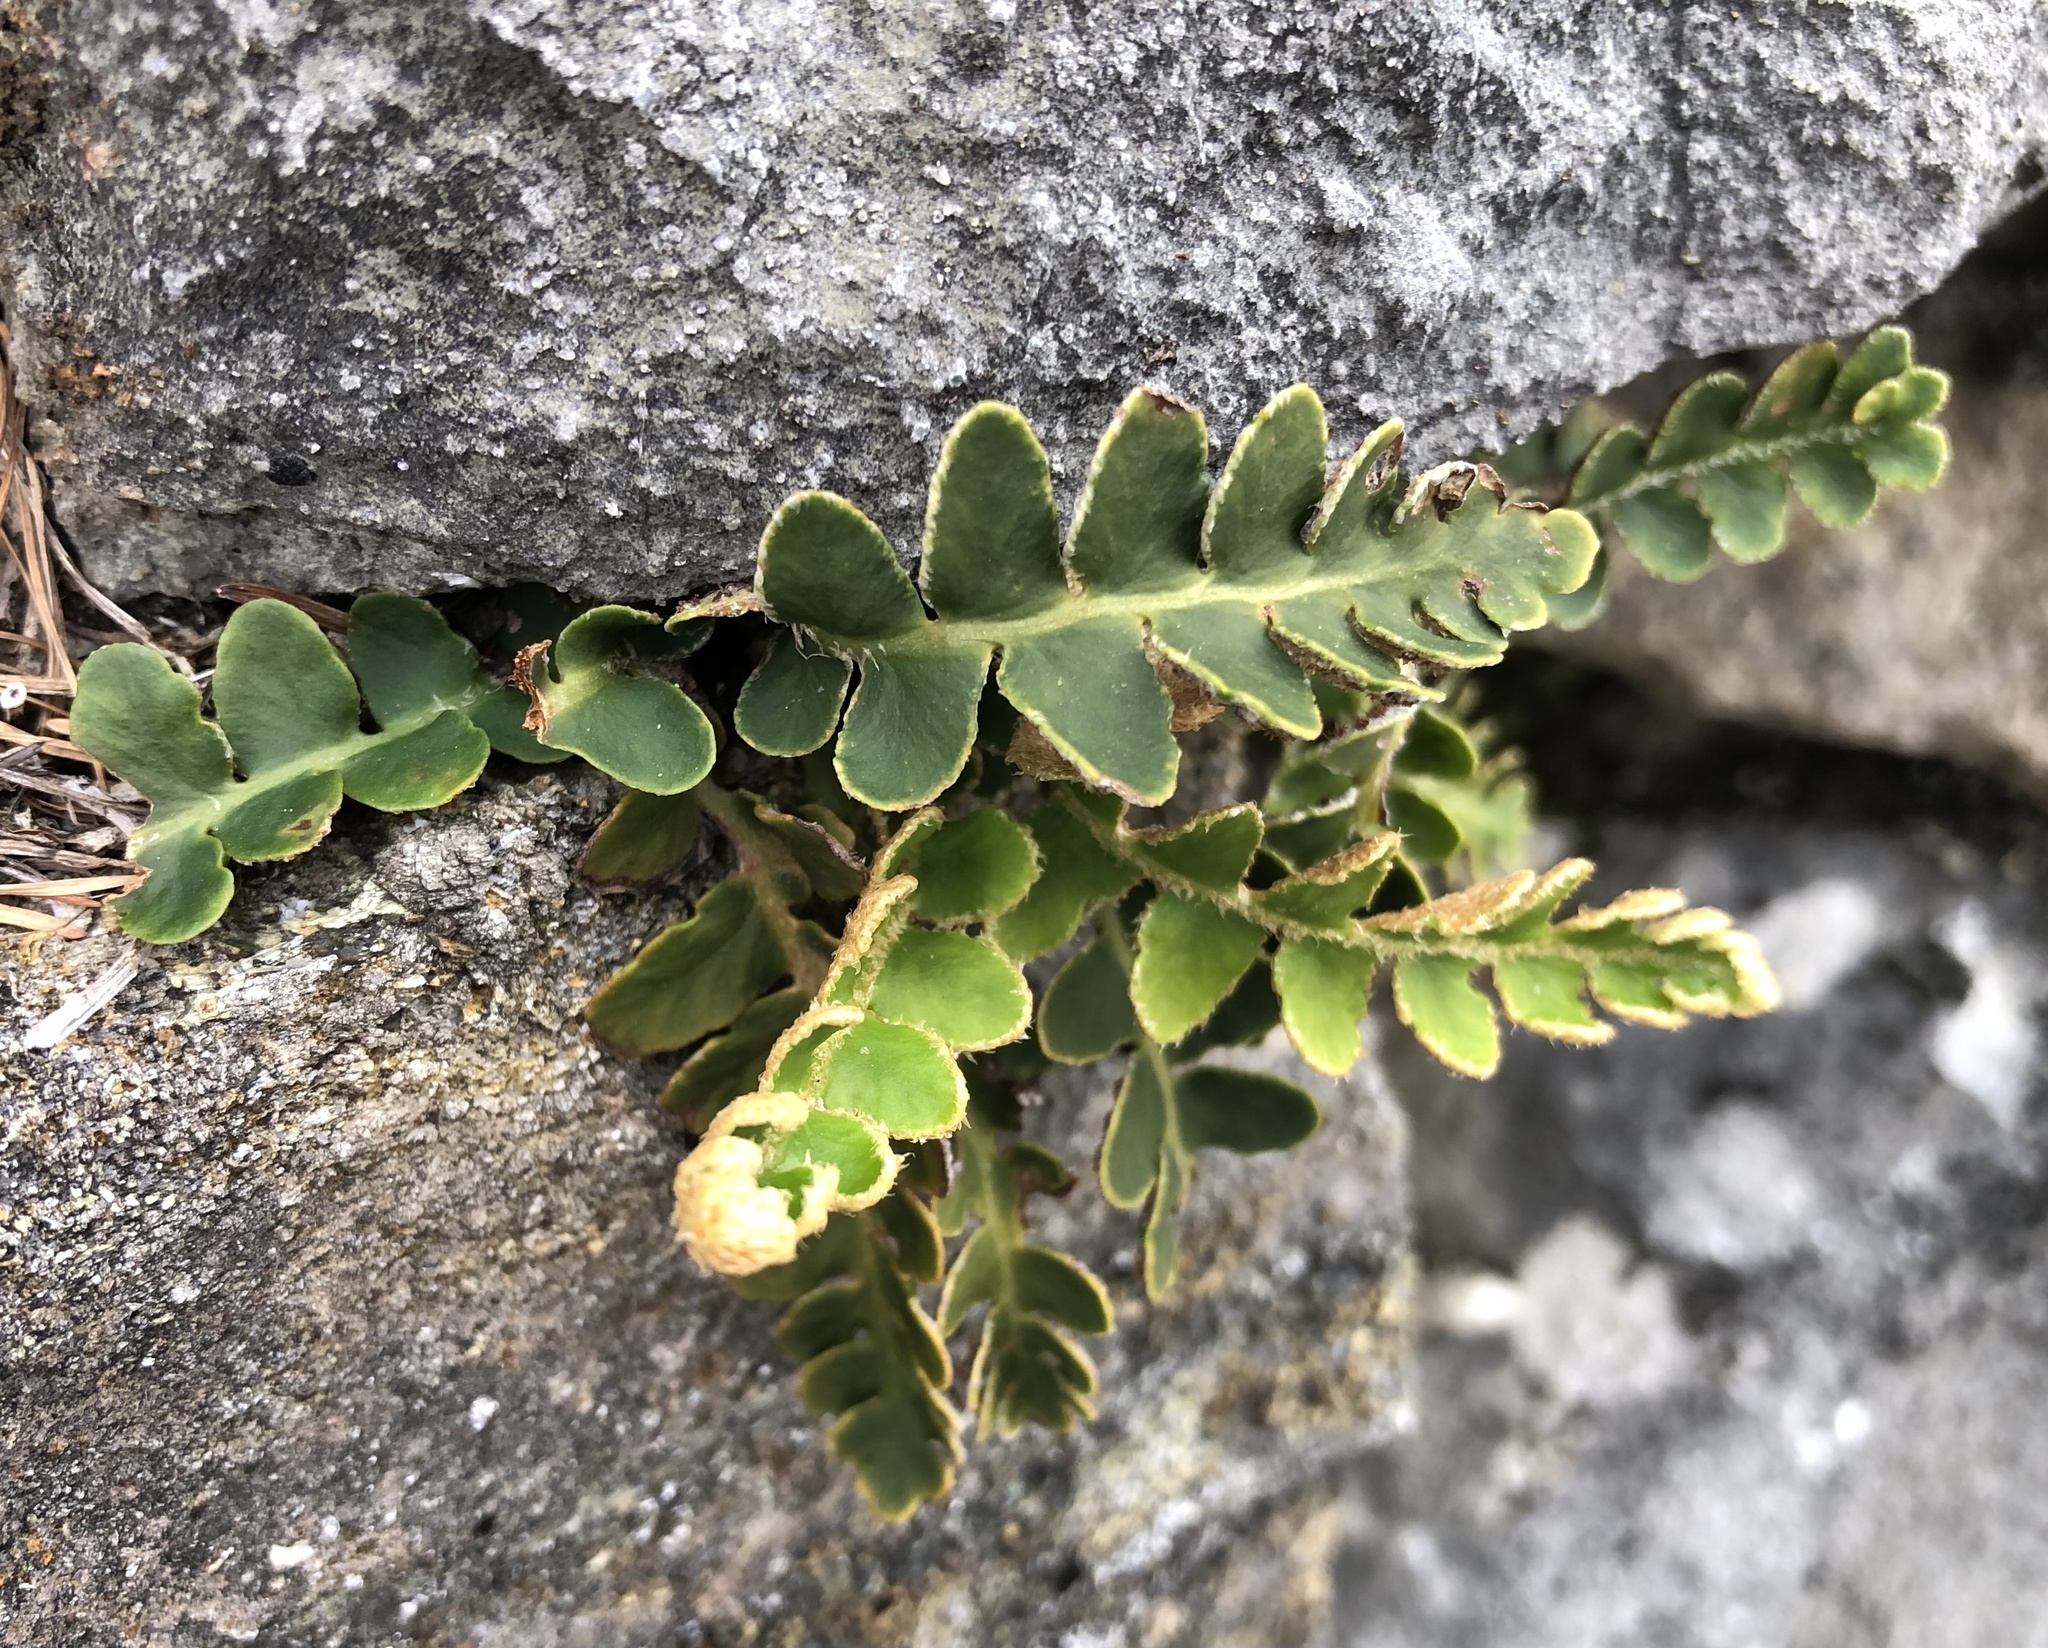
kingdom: Plantae
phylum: Tracheophyta
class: Polypodiopsida
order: Polypodiales
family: Aspleniaceae
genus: Asplenium
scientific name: Asplenium ceterach
